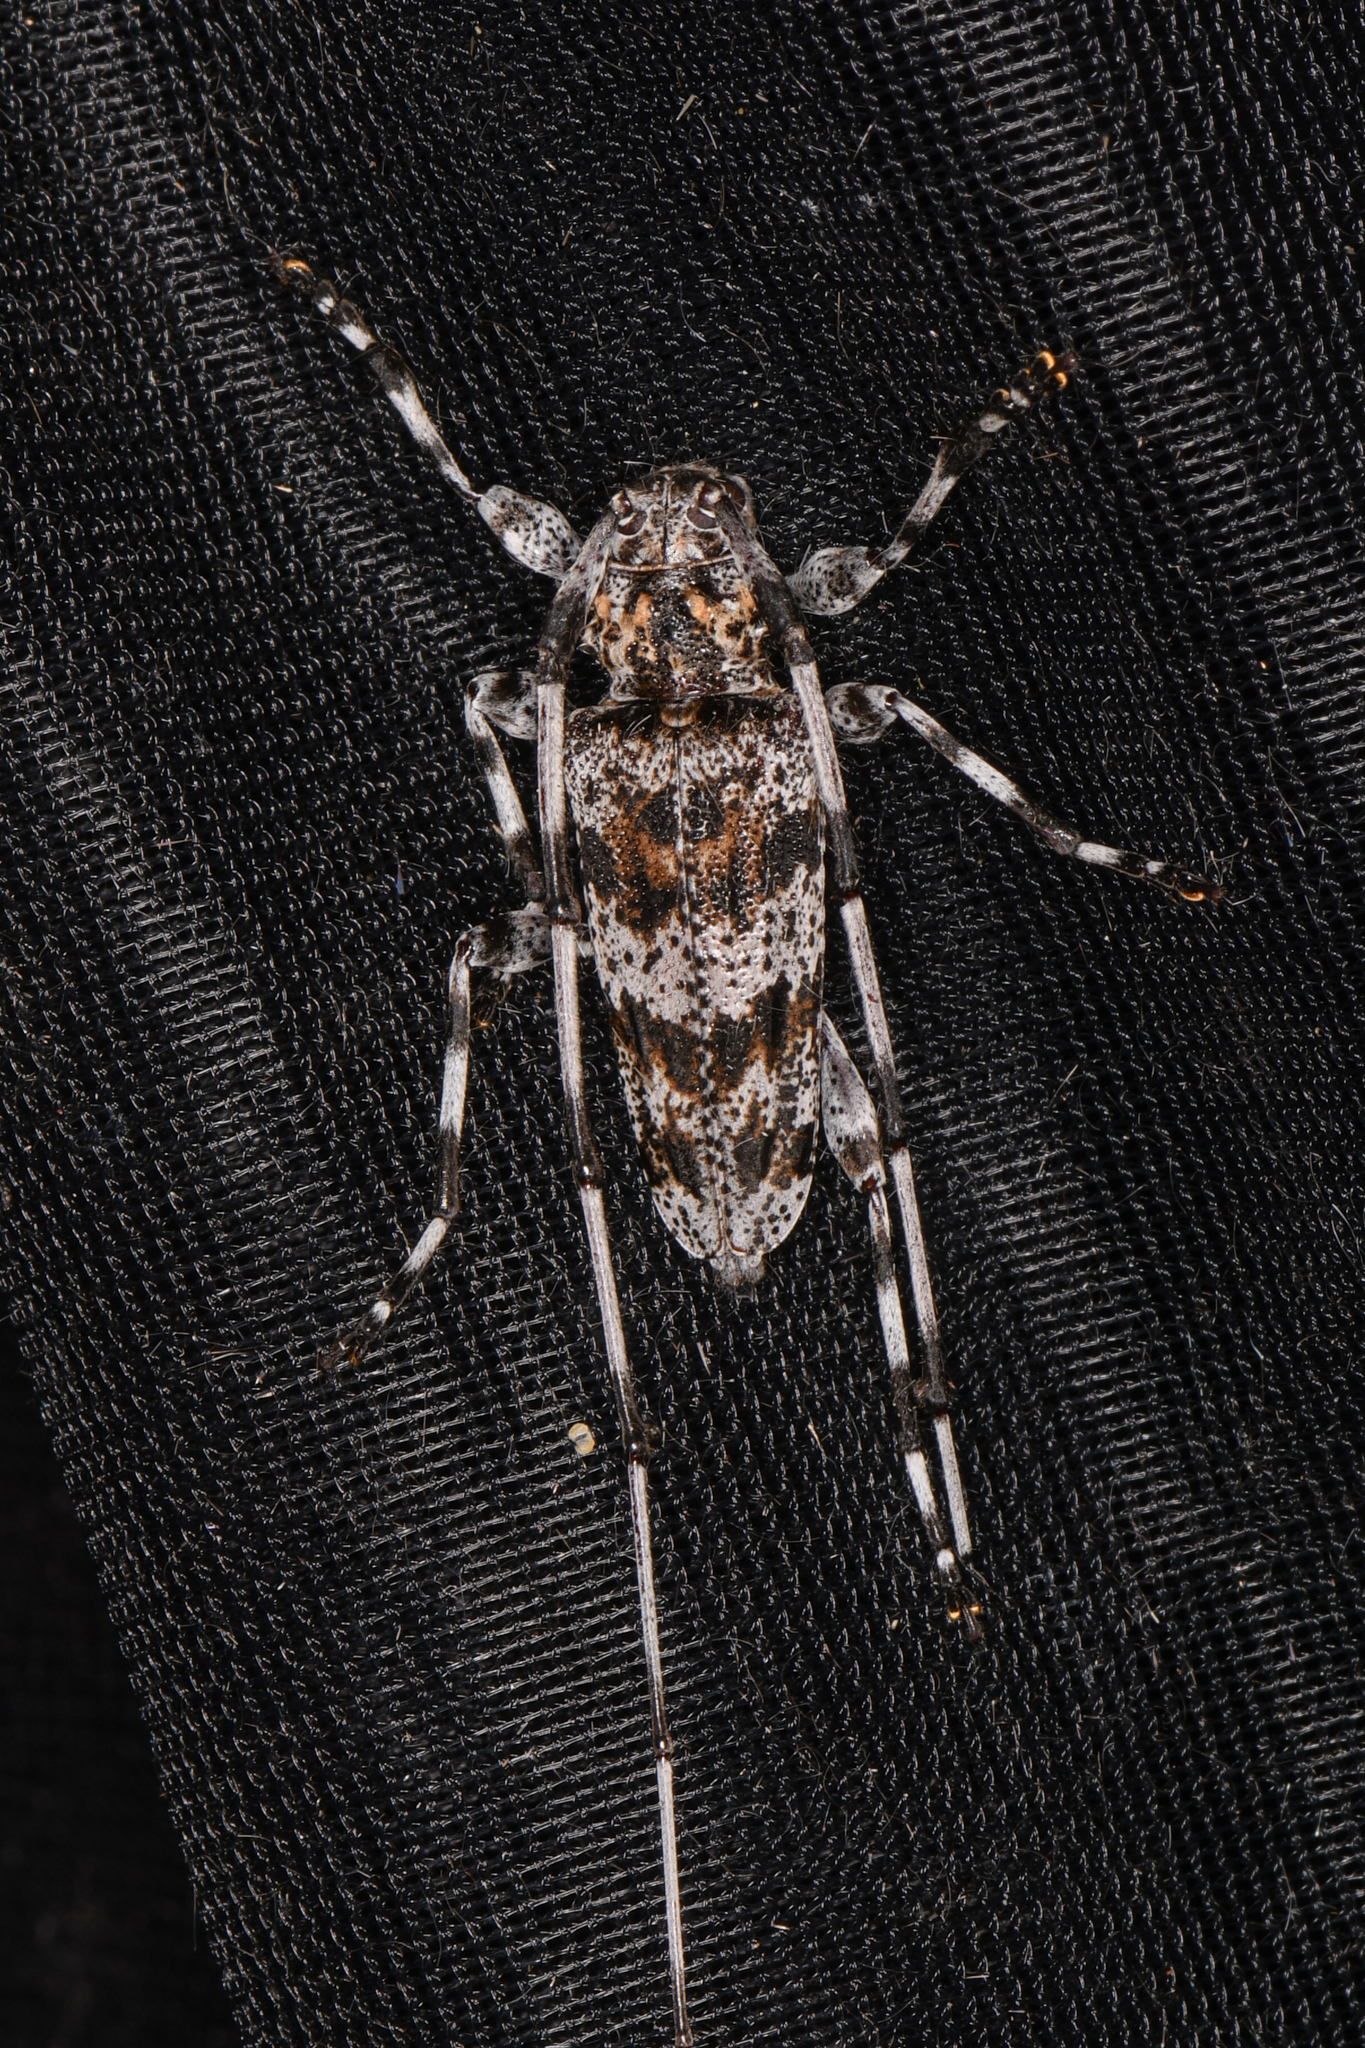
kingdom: Animalia
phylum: Arthropoda
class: Insecta
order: Coleoptera
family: Cerambycidae
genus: Acanthocinus
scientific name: Acanthocinus princeps
